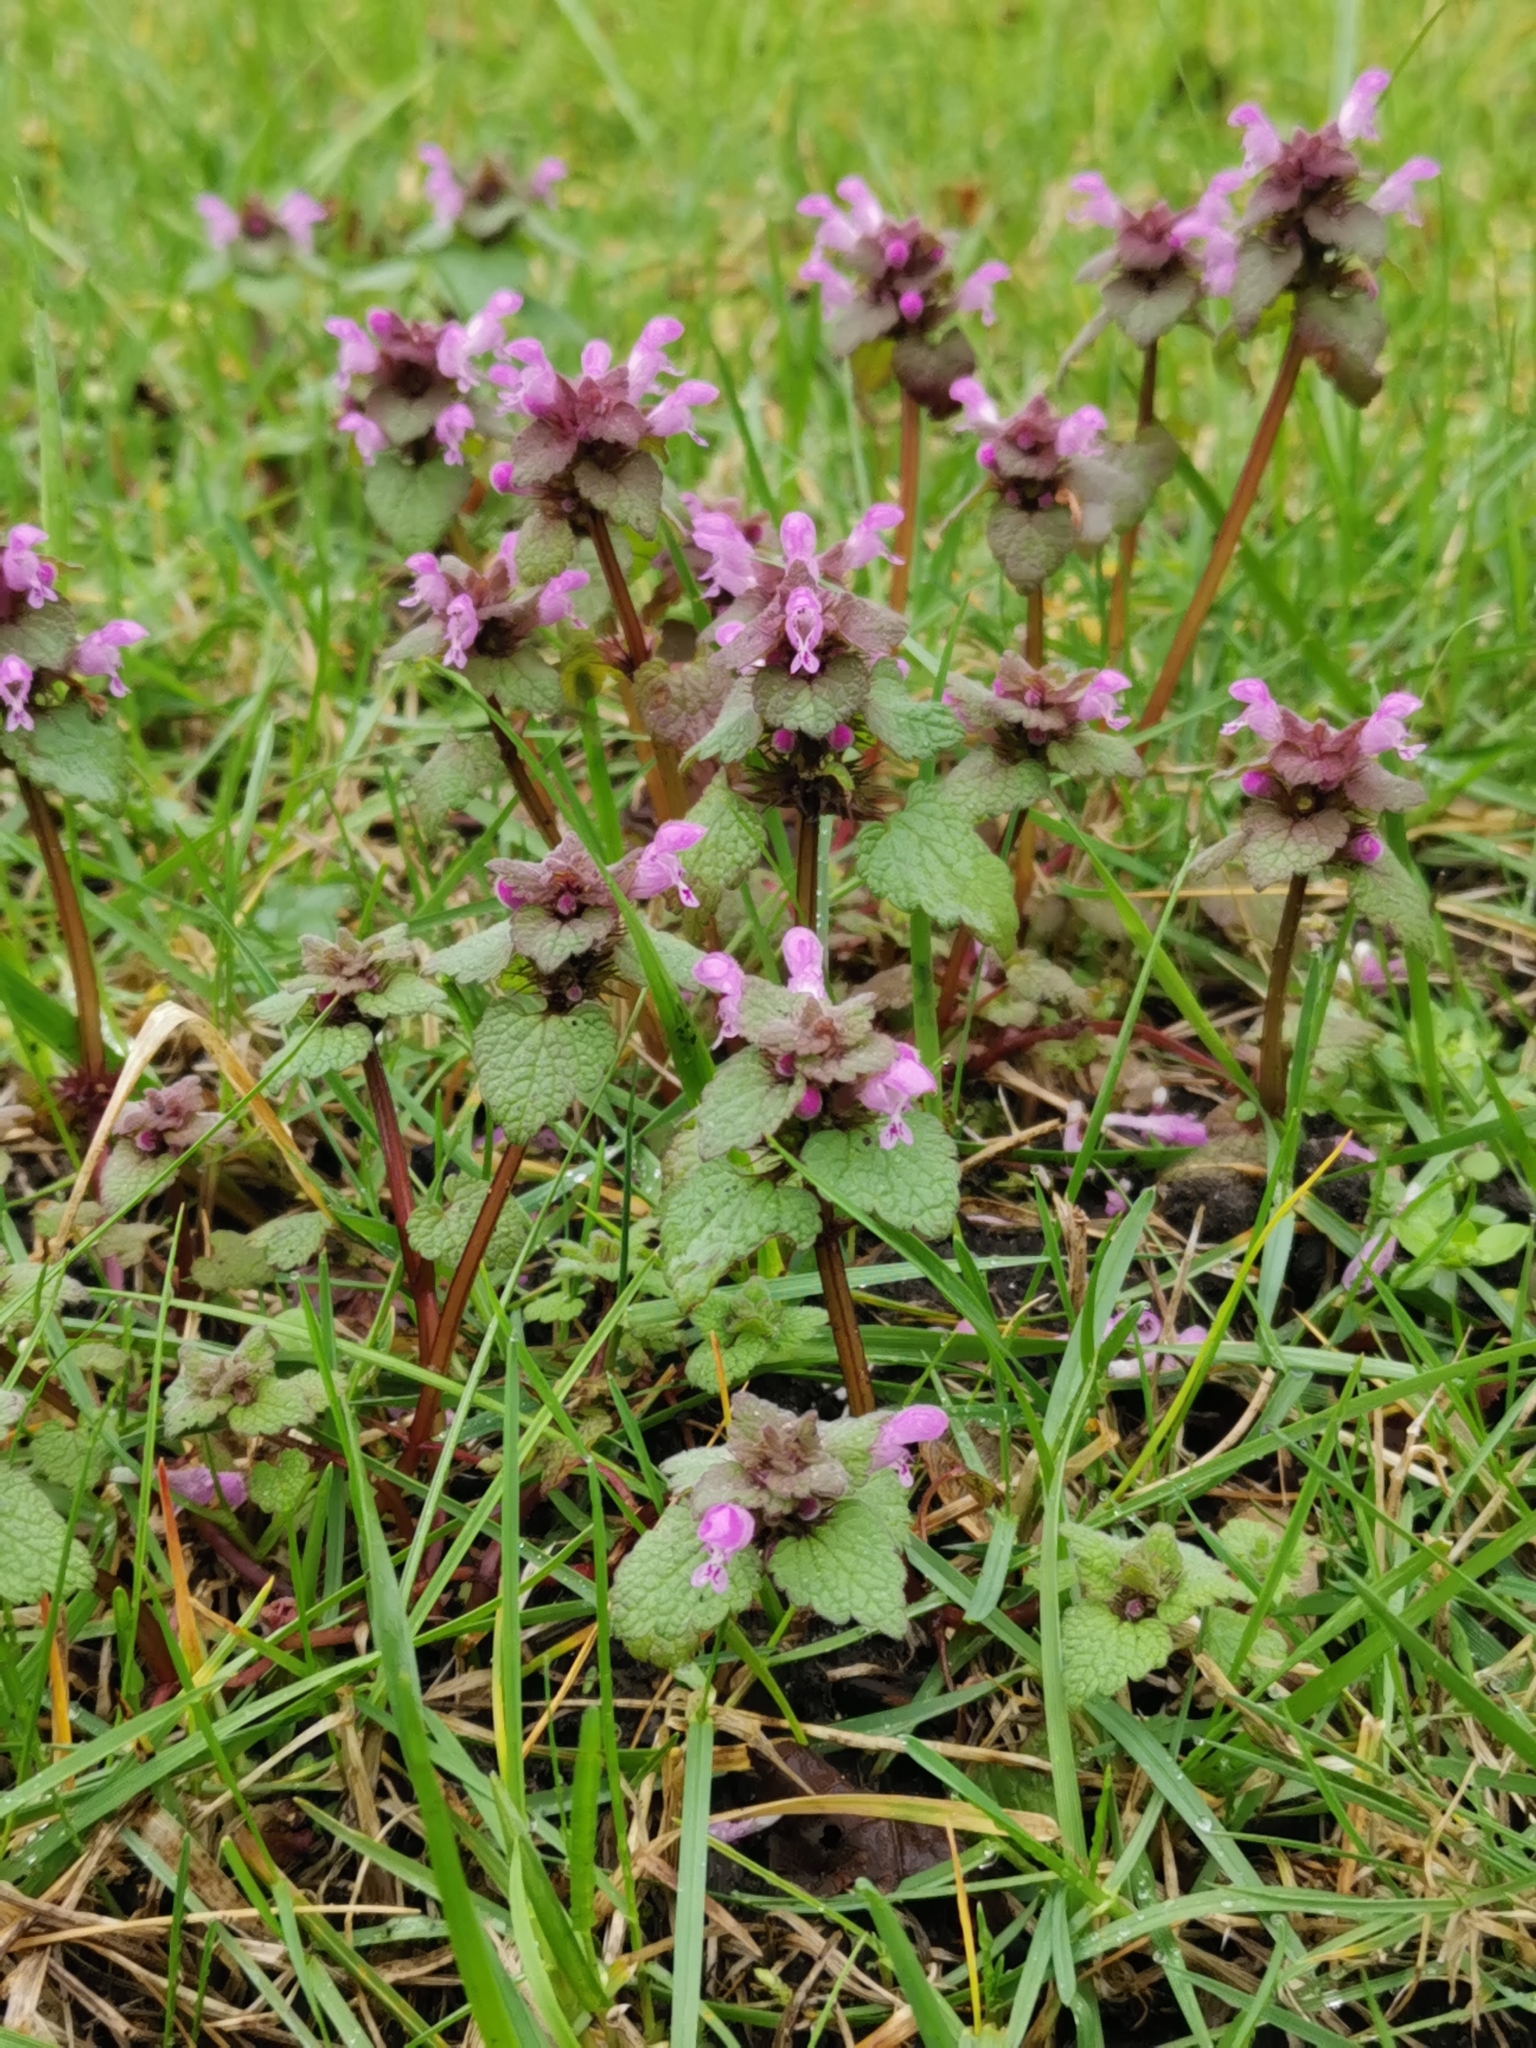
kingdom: Plantae
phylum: Tracheophyta
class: Magnoliopsida
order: Lamiales
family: Lamiaceae
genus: Lamium
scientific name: Lamium purpureum
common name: Red dead-nettle
